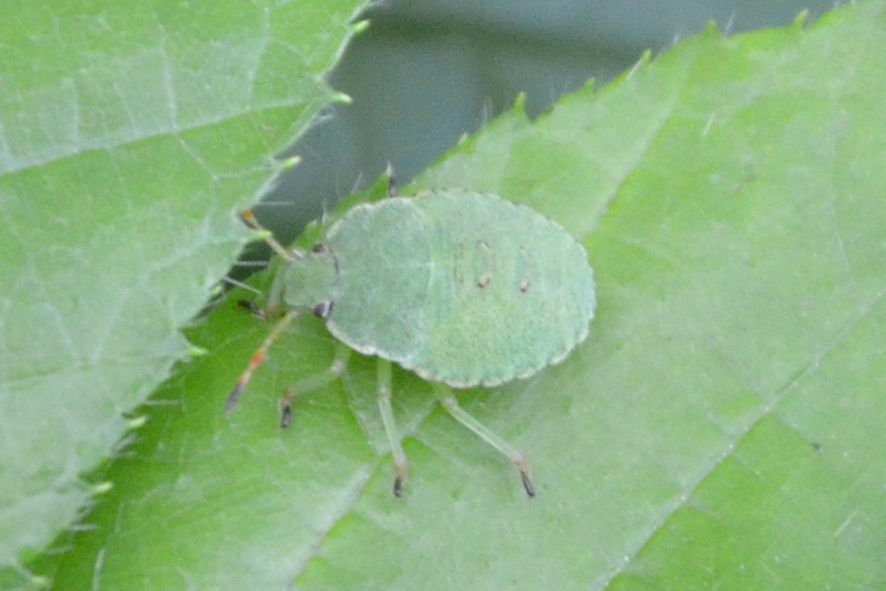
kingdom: Animalia
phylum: Arthropoda
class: Insecta
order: Hemiptera
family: Pentatomidae
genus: Palomena
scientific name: Palomena prasina
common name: Green shieldbug
